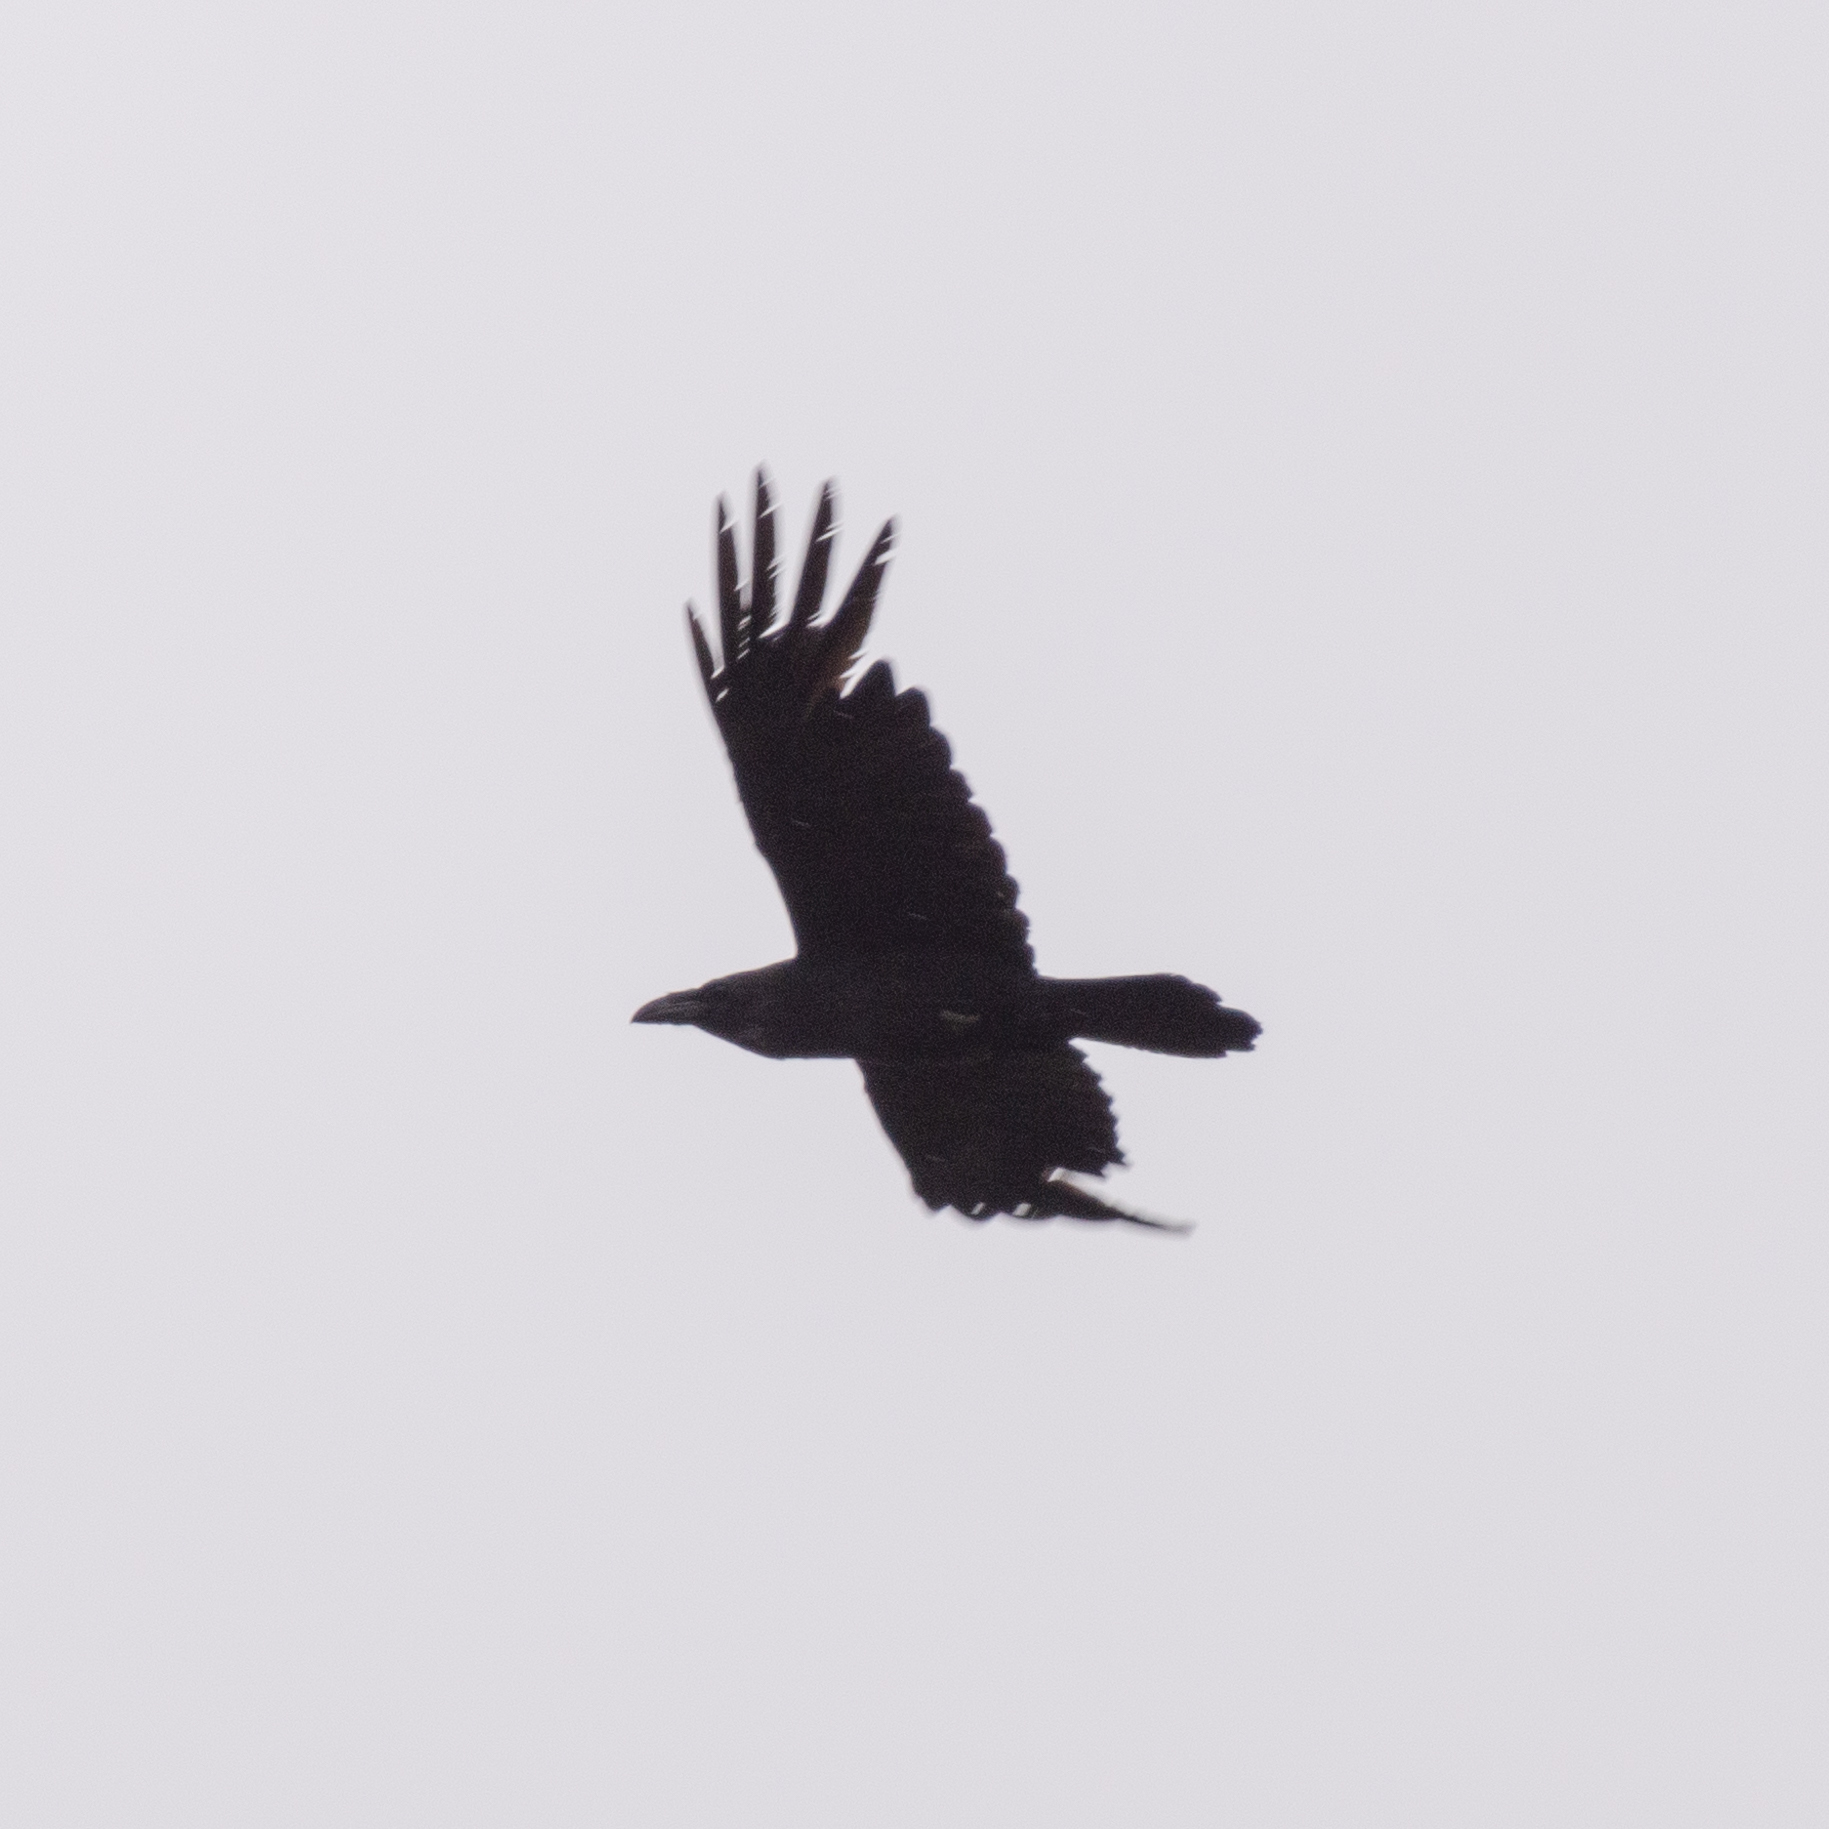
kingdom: Animalia
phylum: Chordata
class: Aves
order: Passeriformes
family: Corvidae
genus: Corvus
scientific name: Corvus corax
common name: Common raven
